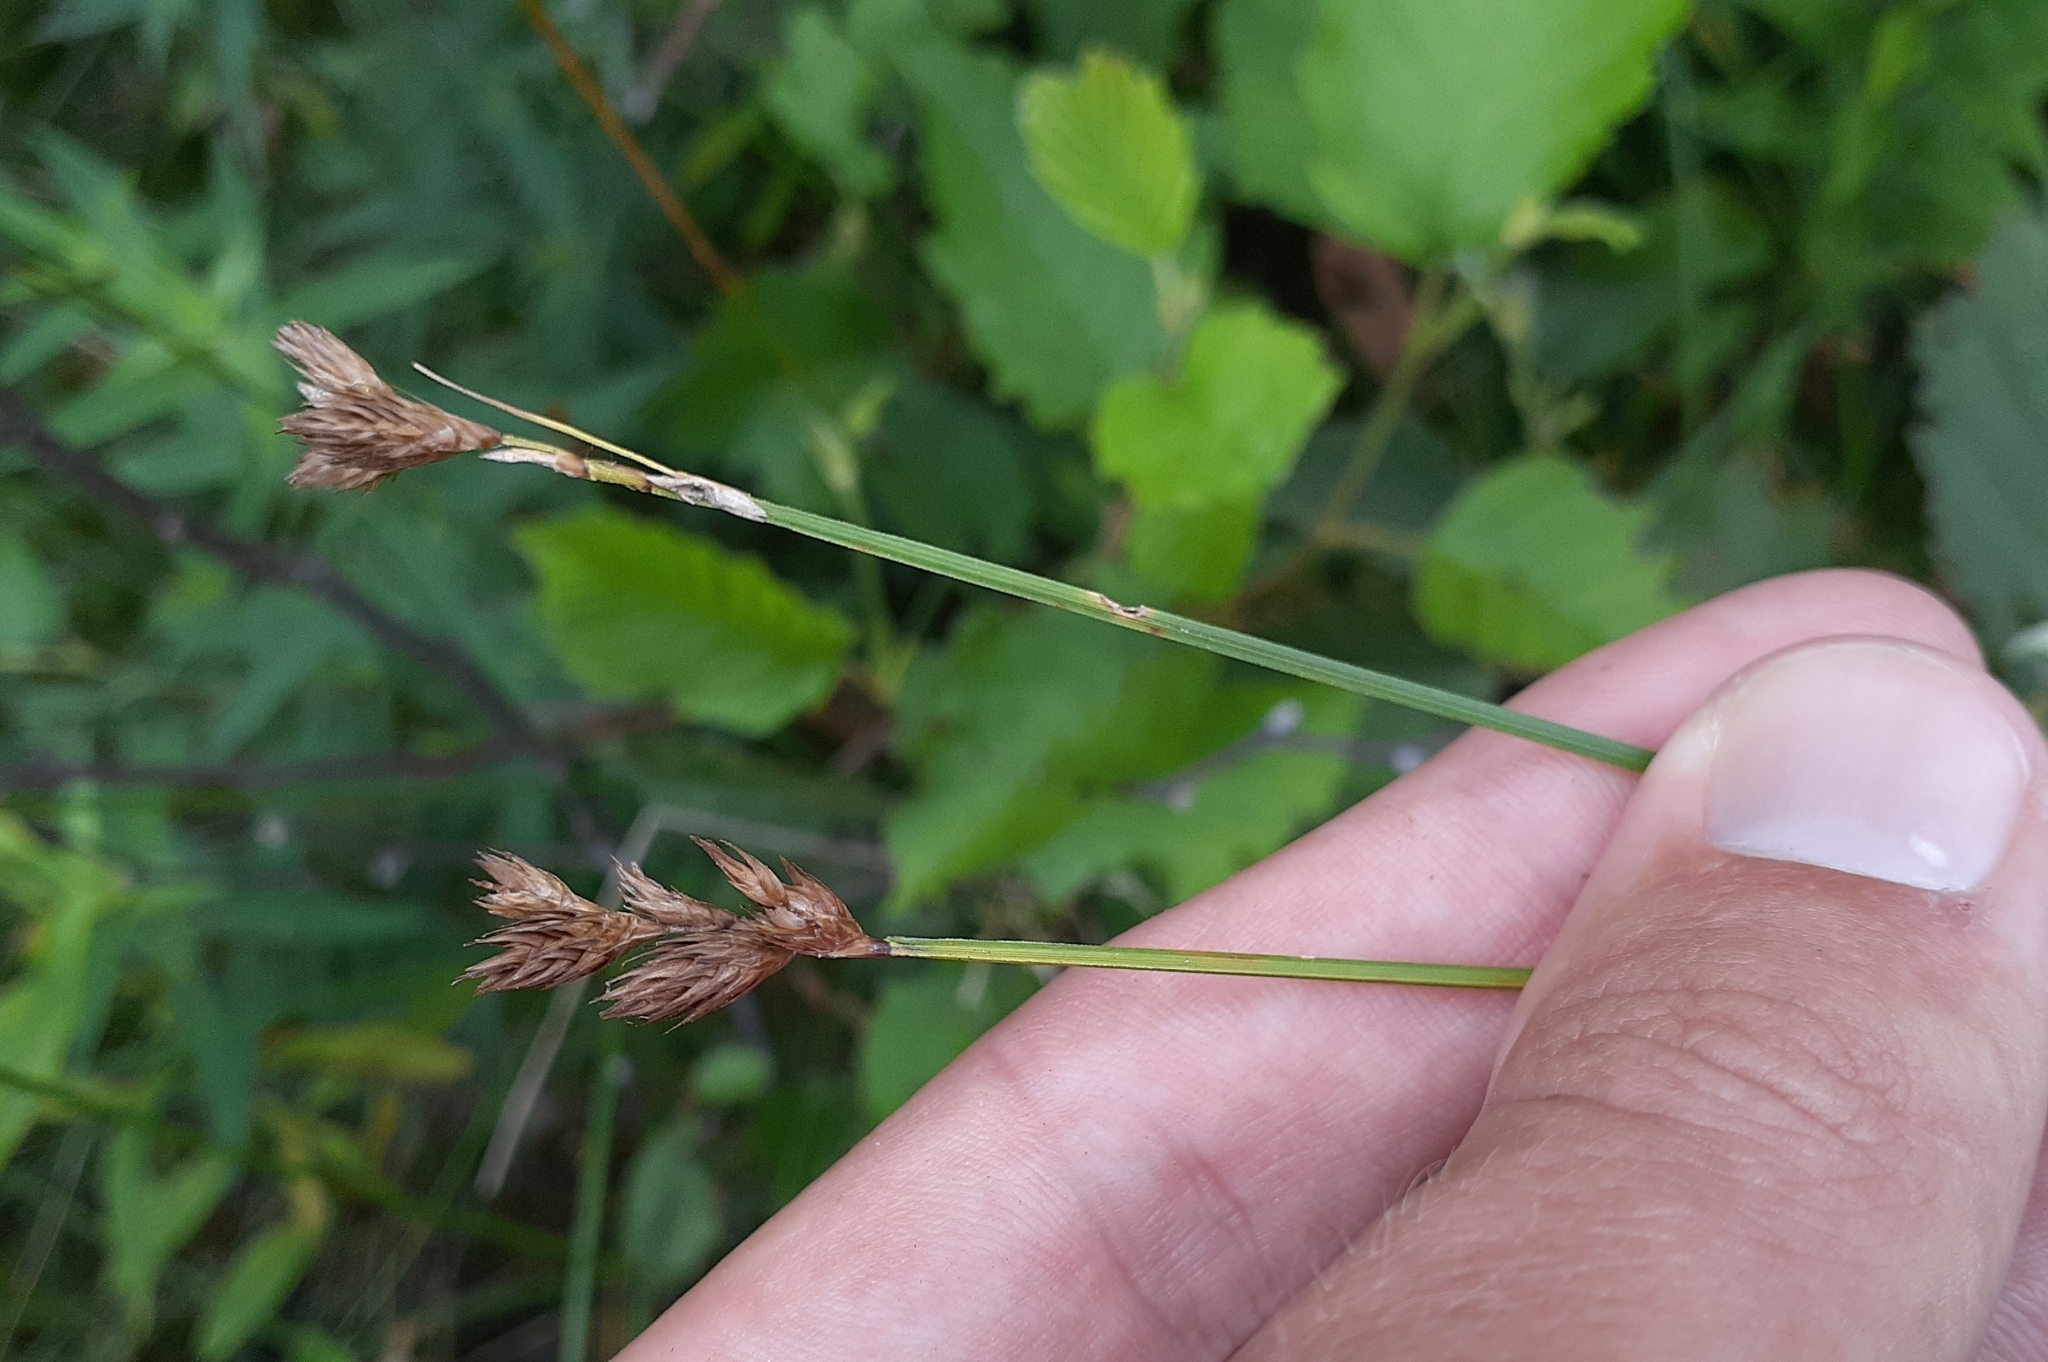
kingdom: Plantae
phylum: Tracheophyta
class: Liliopsida
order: Poales
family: Cyperaceae
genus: Carex
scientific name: Carex scoparia
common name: Broom sedge
